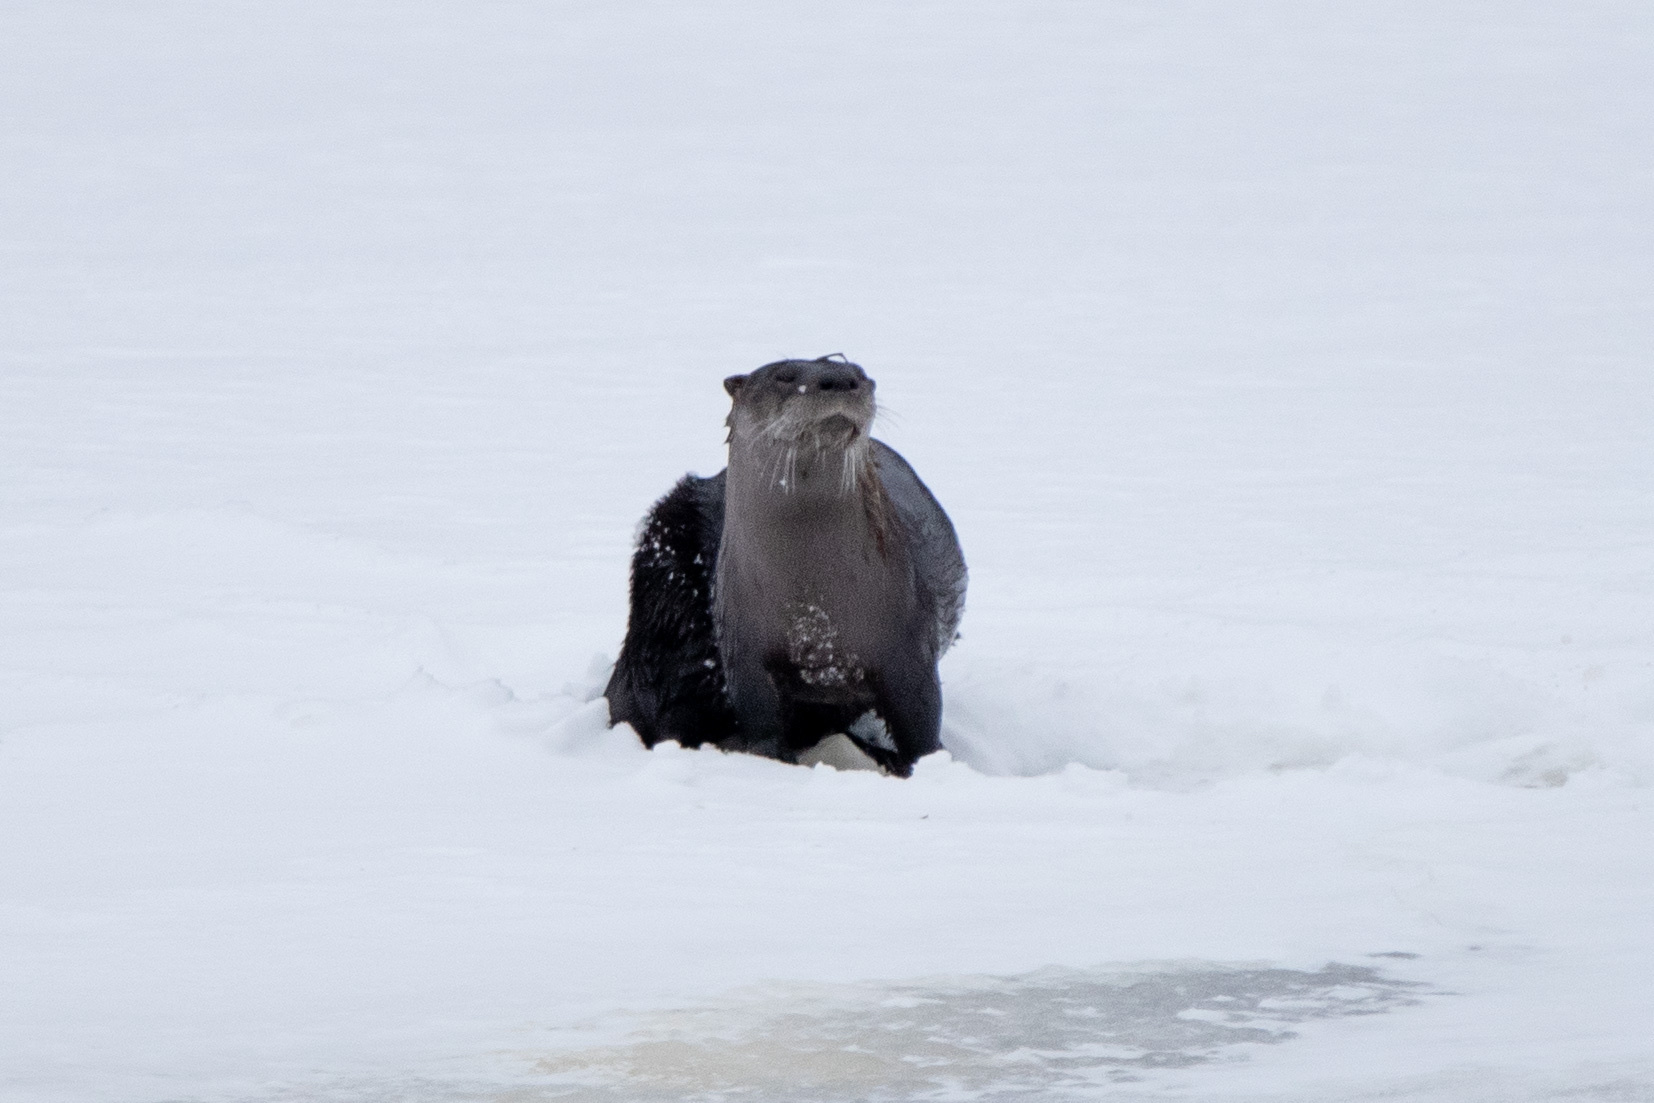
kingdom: Animalia
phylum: Chordata
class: Mammalia
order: Carnivora
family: Mustelidae
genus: Lontra
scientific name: Lontra canadensis
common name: North american river otter
